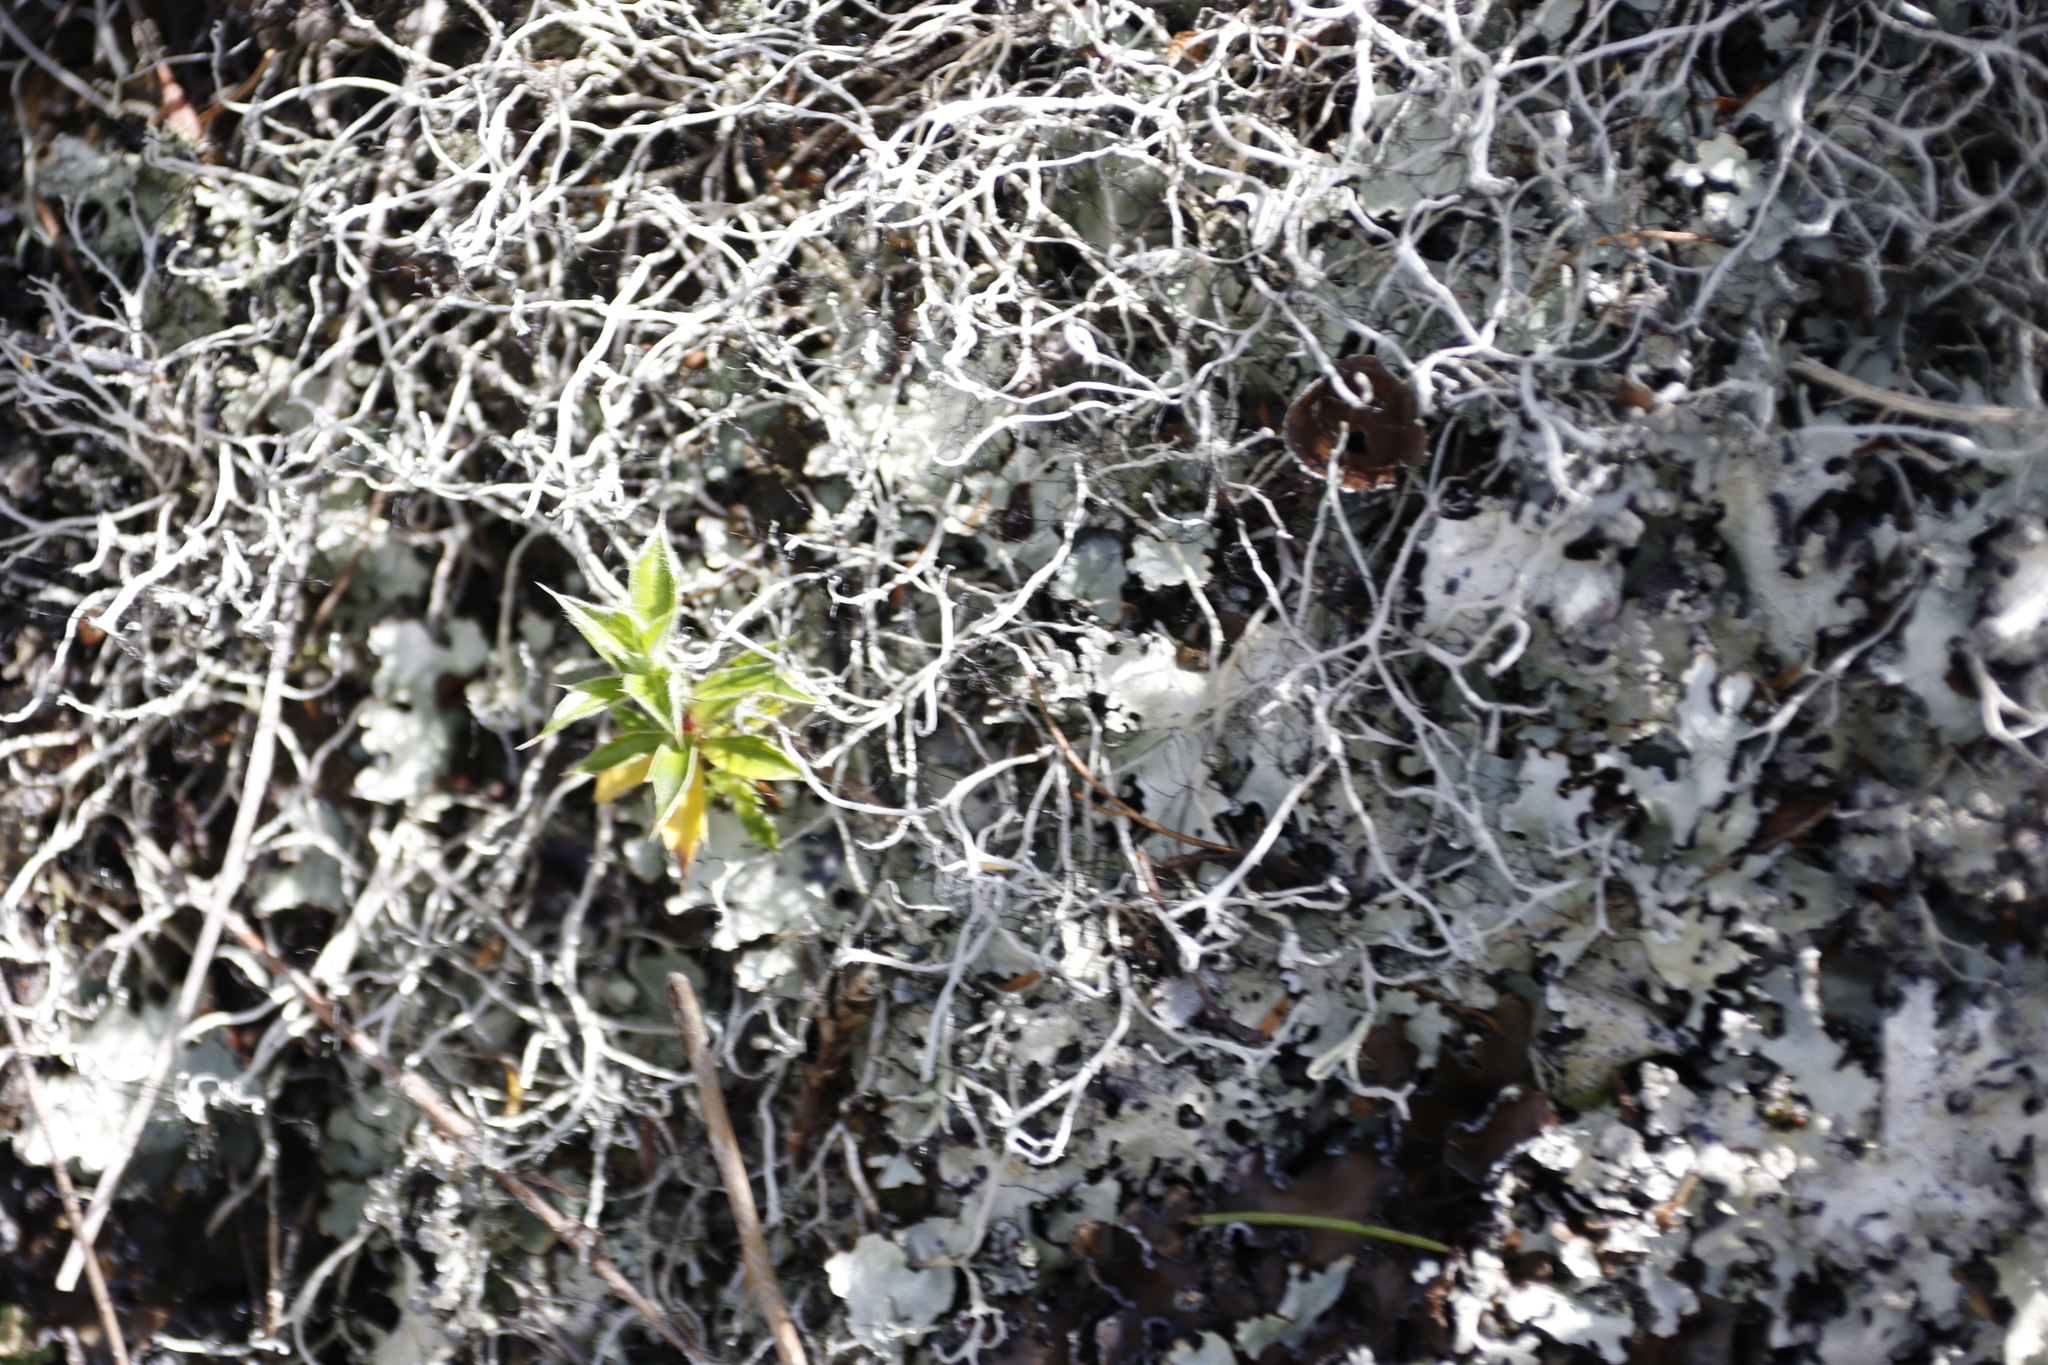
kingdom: Fungi
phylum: Ascomycota
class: Lecanoromycetes
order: Caliciales
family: Physciaceae
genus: Leucodermia
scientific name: Leucodermia leucomelos
